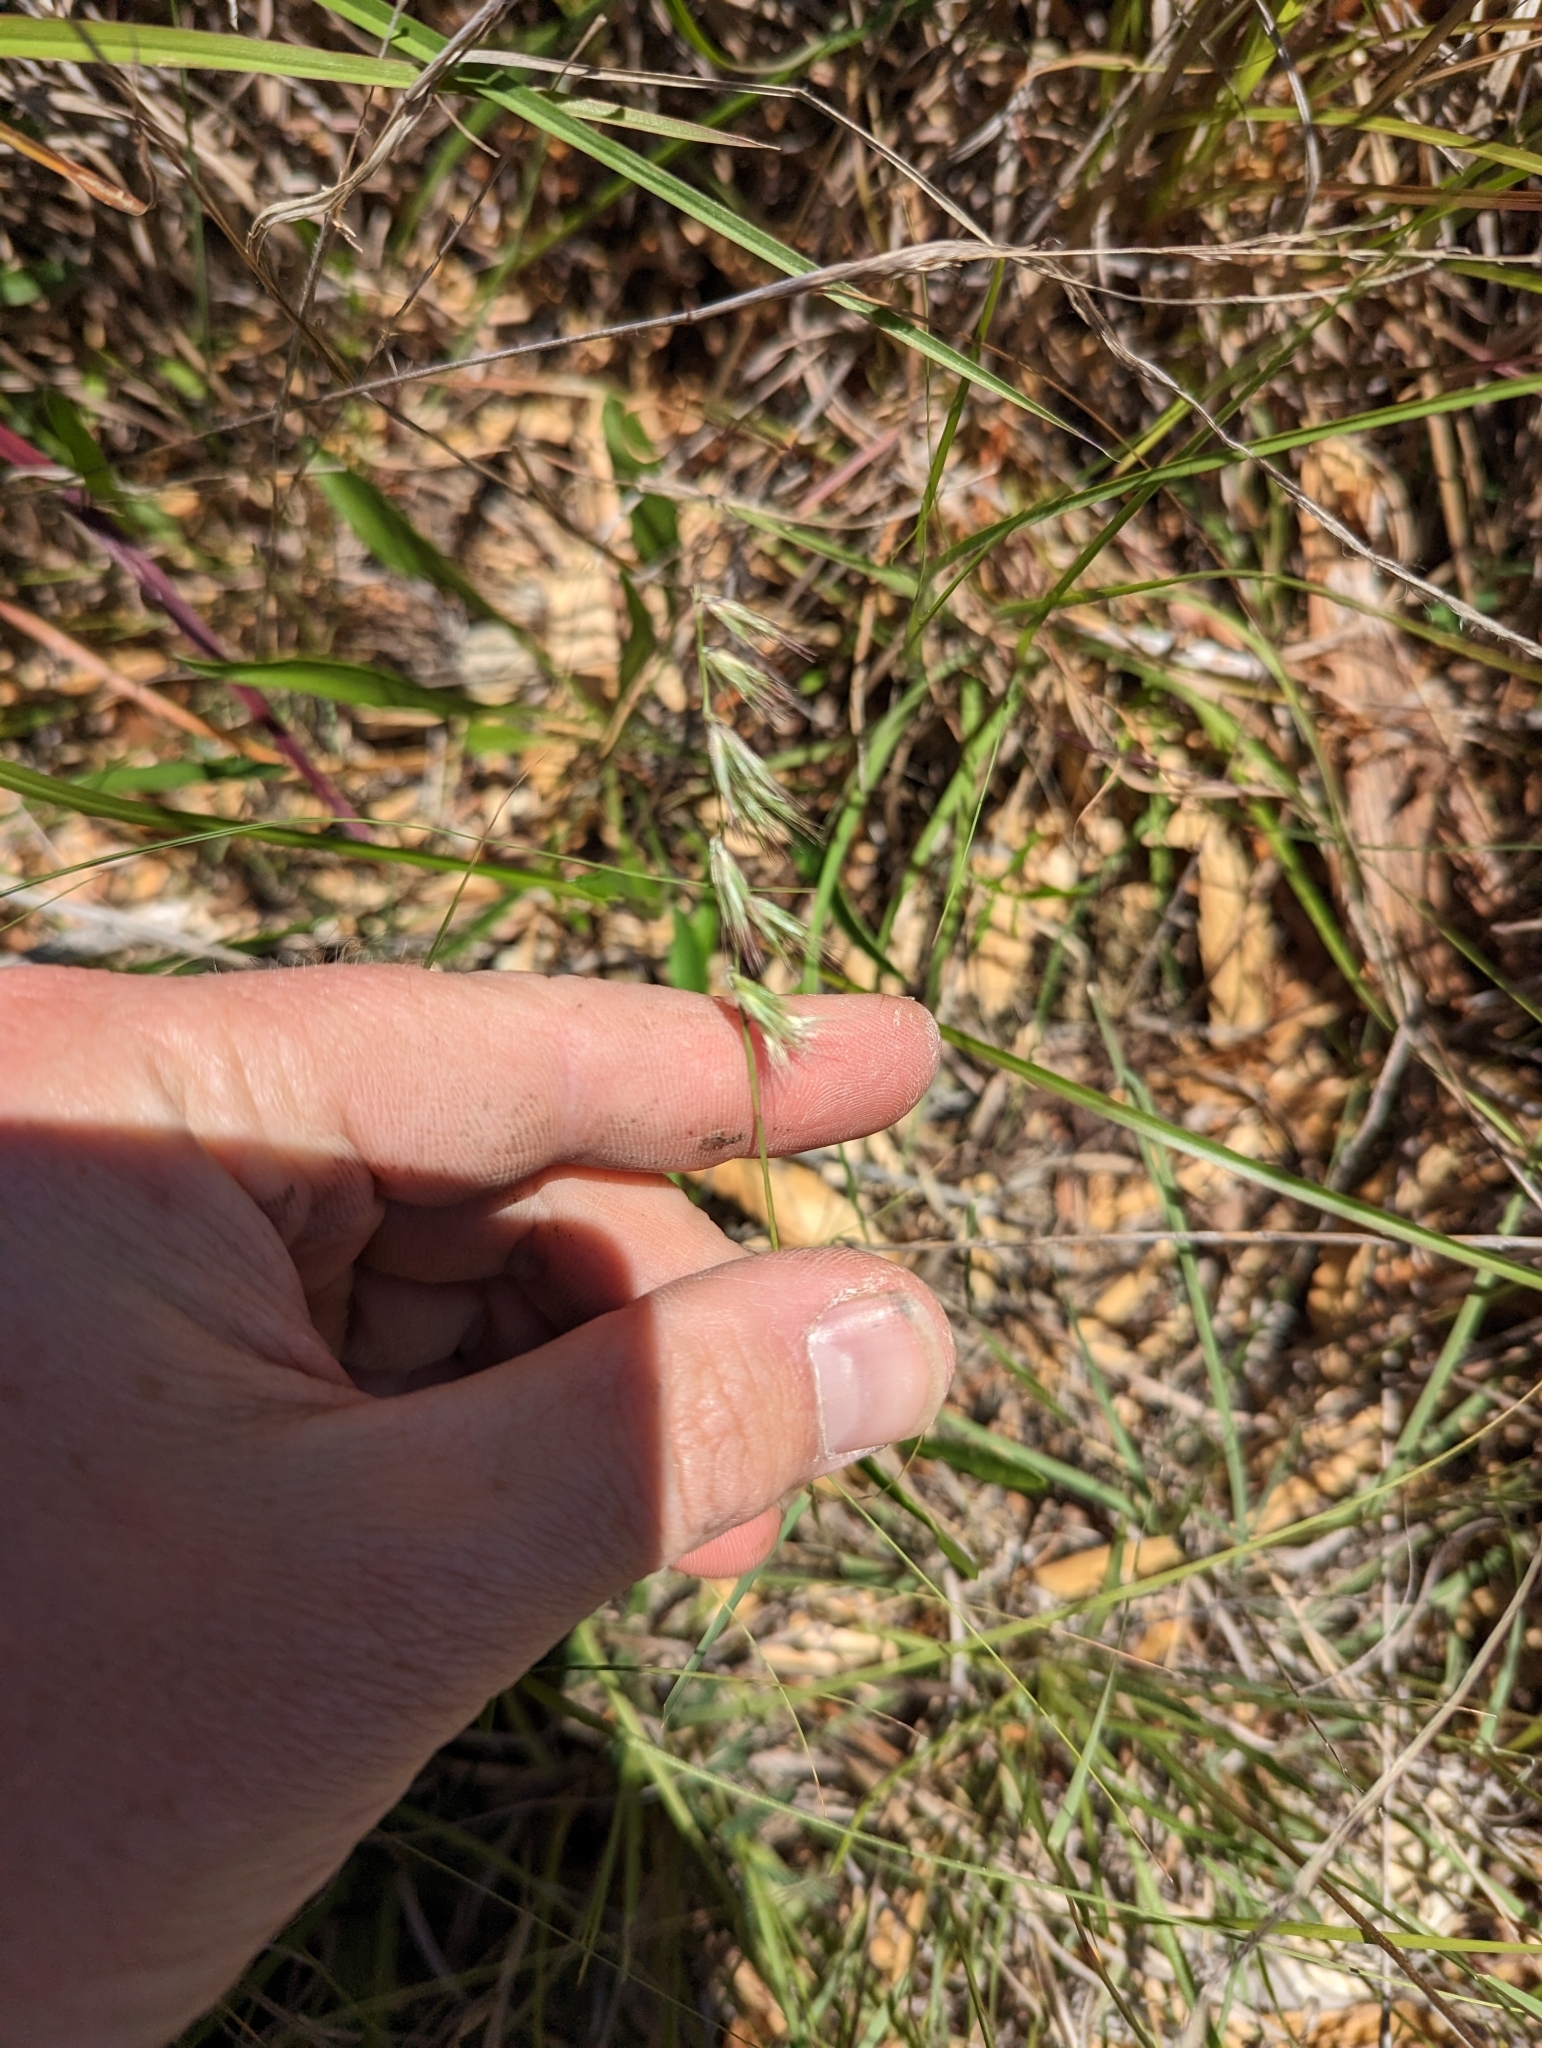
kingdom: Plantae
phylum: Tracheophyta
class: Liliopsida
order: Poales
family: Poaceae
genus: Bouteloua
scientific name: Bouteloua rigidiseta
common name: Texas grama
